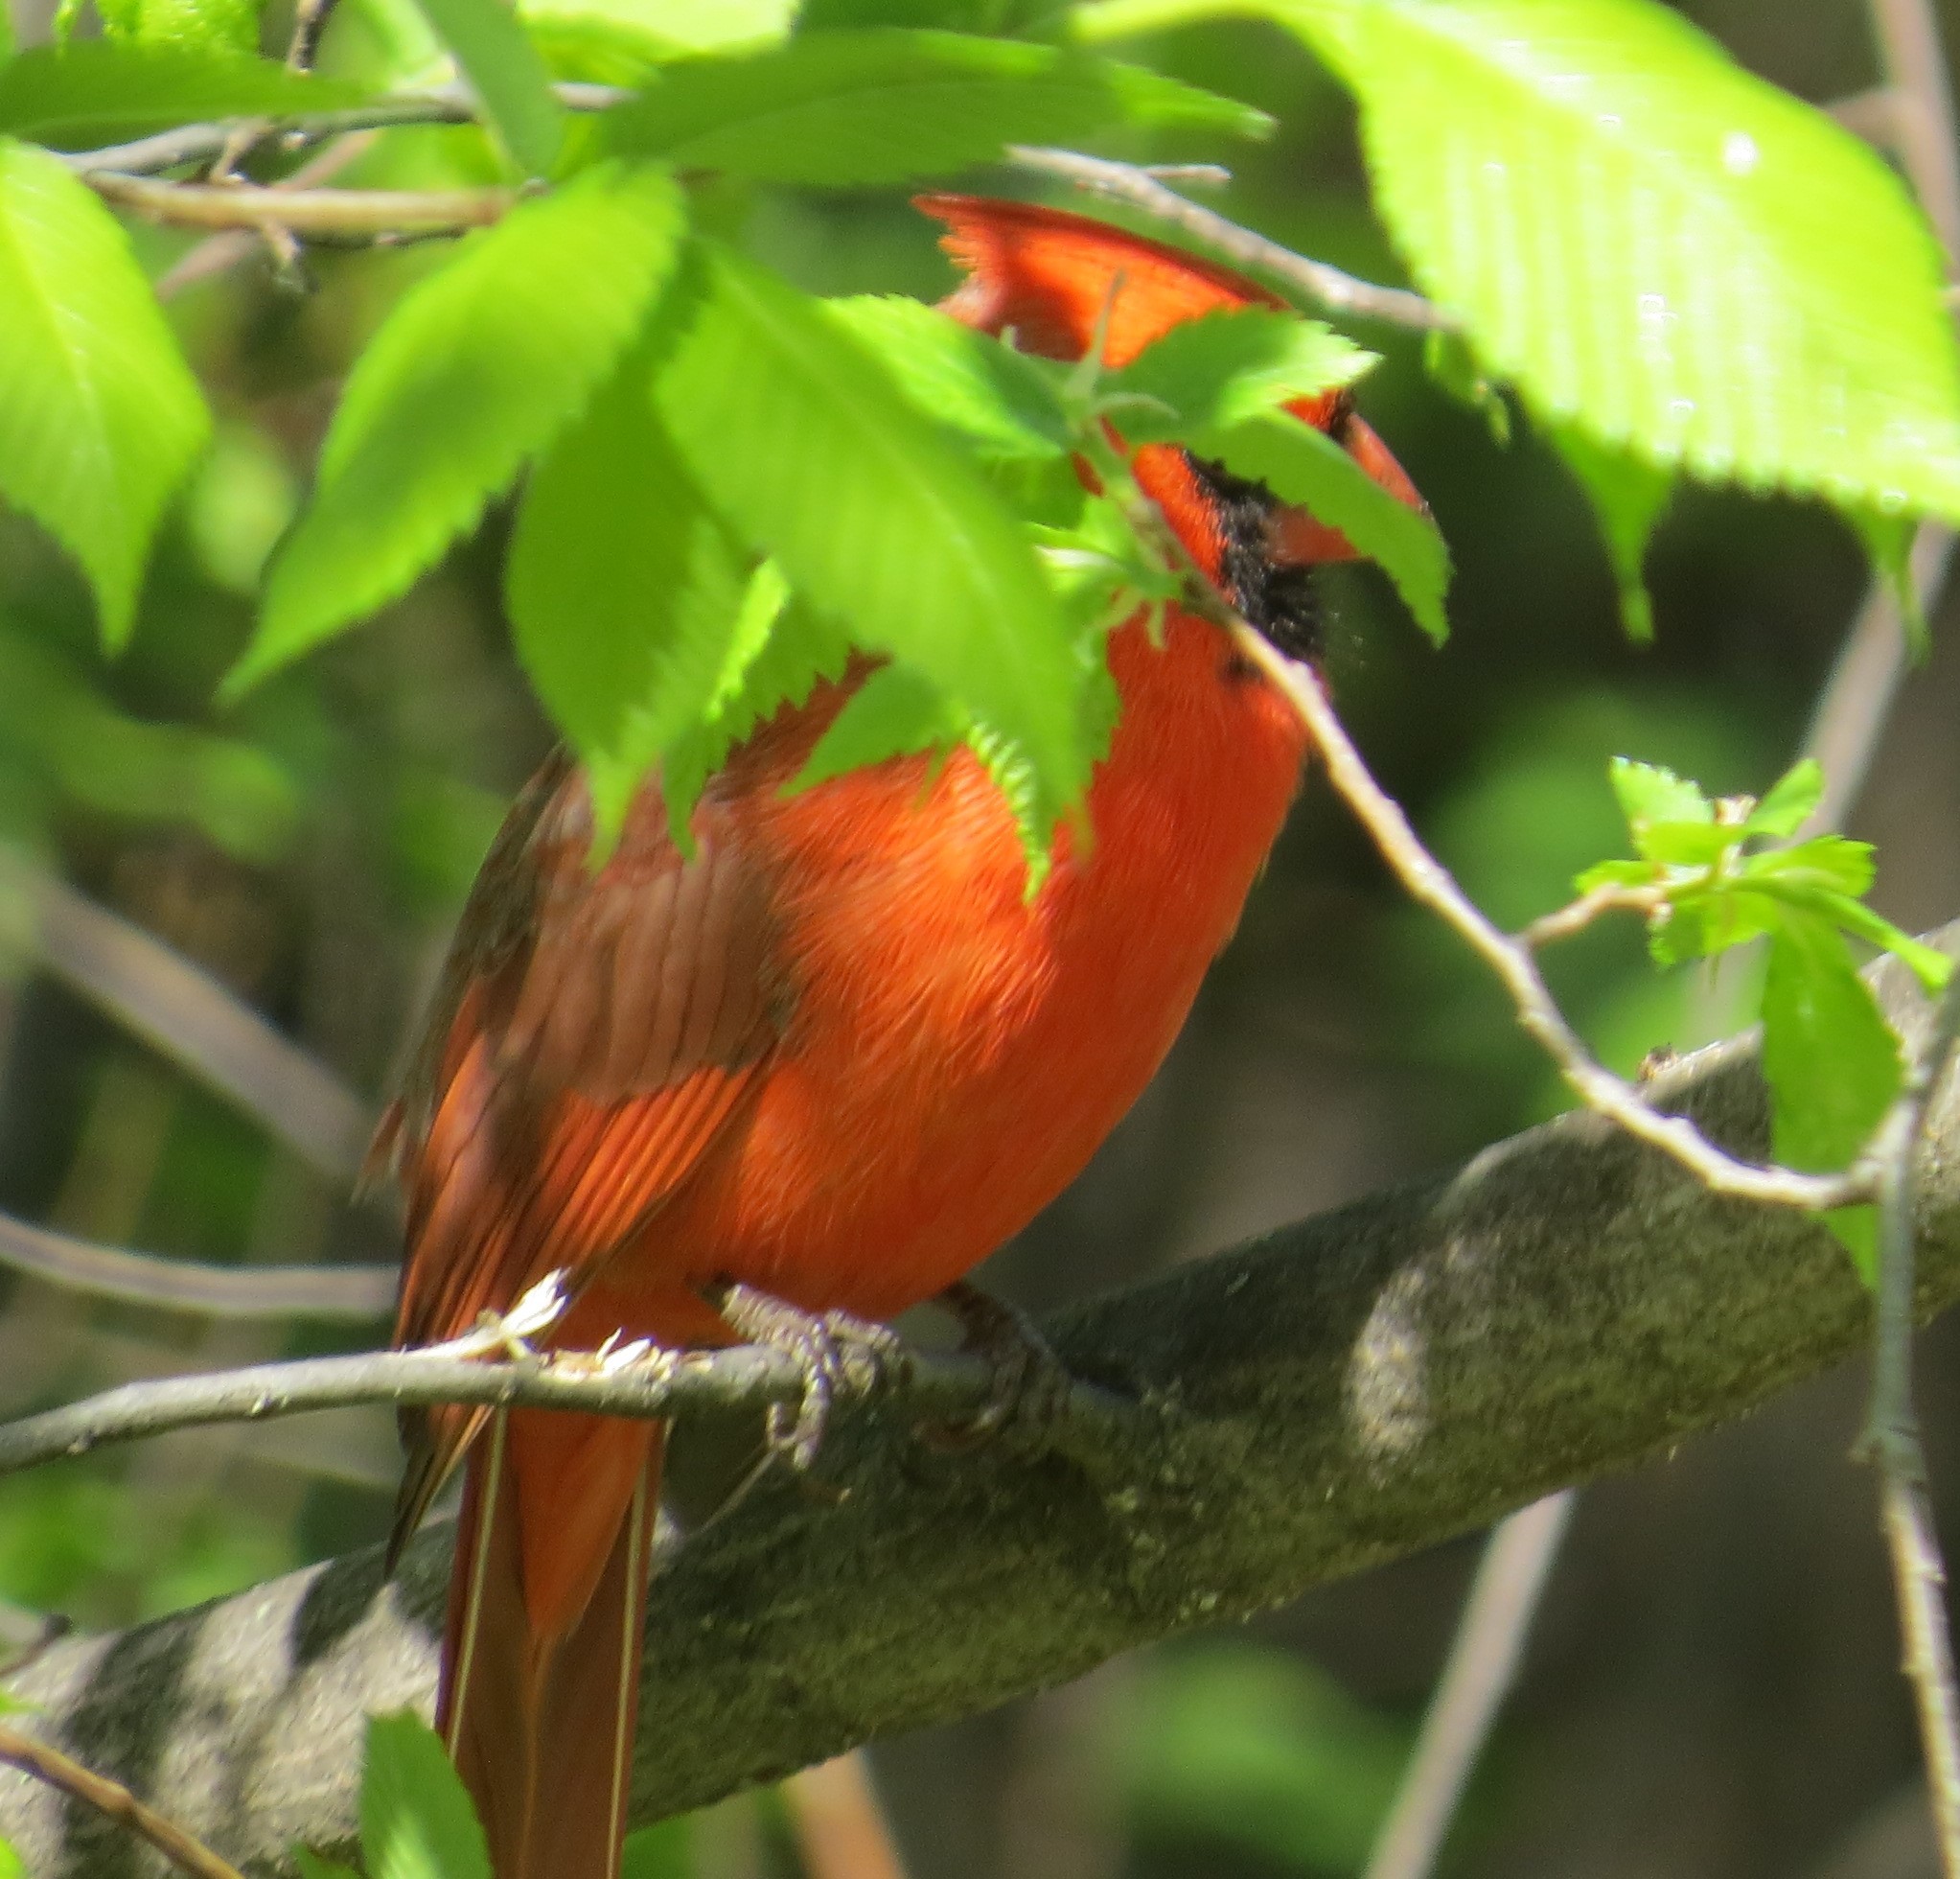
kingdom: Animalia
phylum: Chordata
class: Aves
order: Passeriformes
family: Cardinalidae
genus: Cardinalis
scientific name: Cardinalis cardinalis
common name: Northern cardinal
